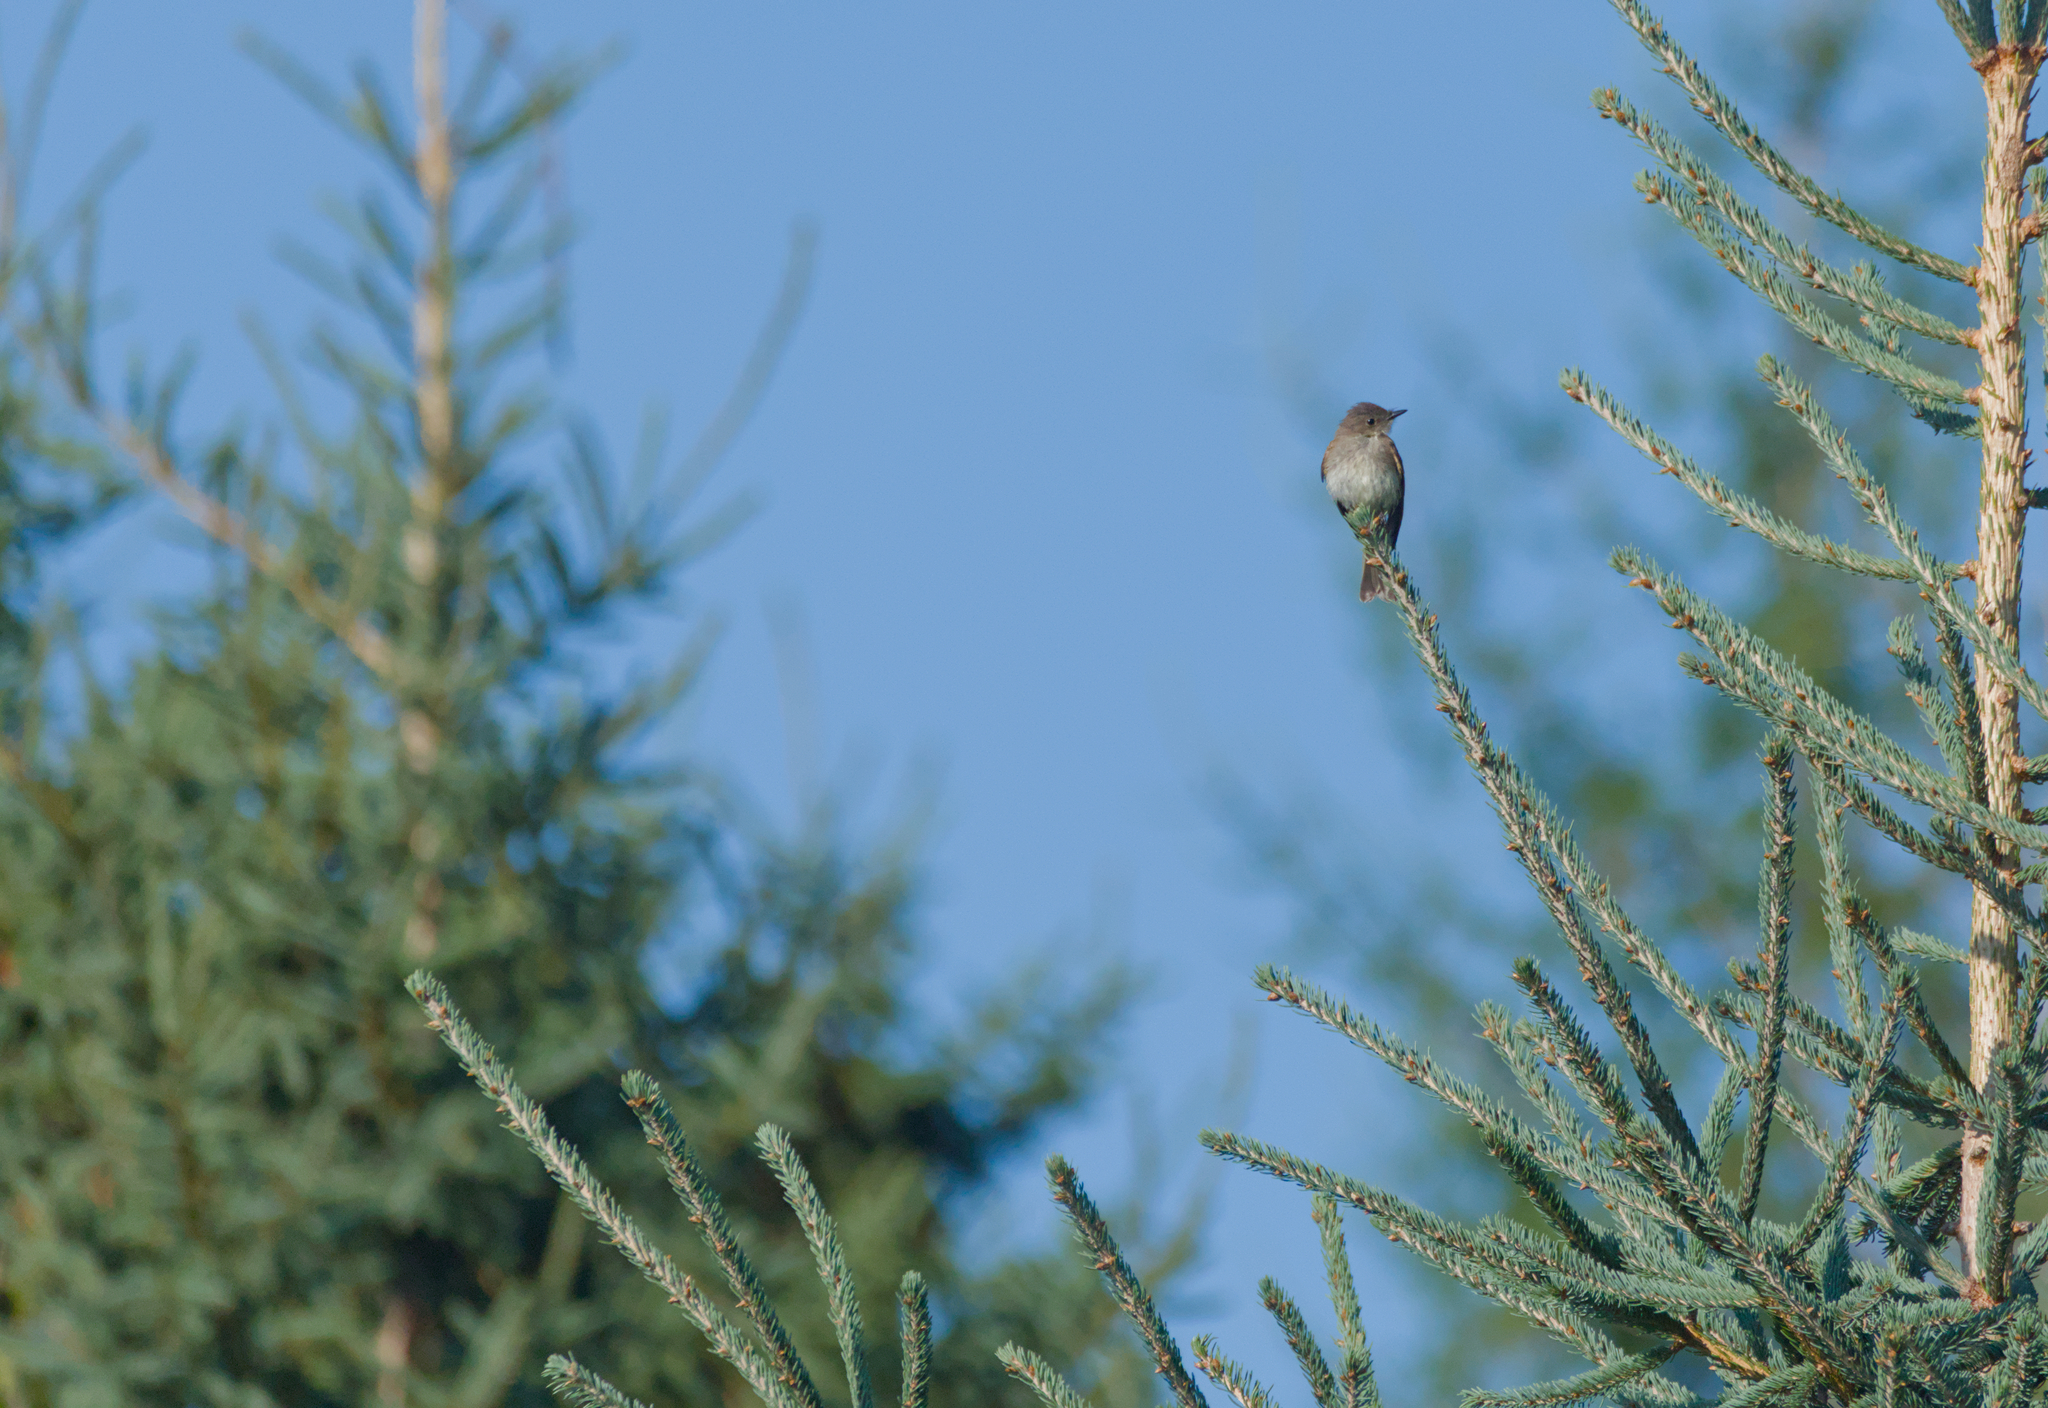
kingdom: Animalia
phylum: Chordata
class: Aves
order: Passeriformes
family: Tyrannidae
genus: Sayornis
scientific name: Sayornis phoebe
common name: Eastern phoebe
